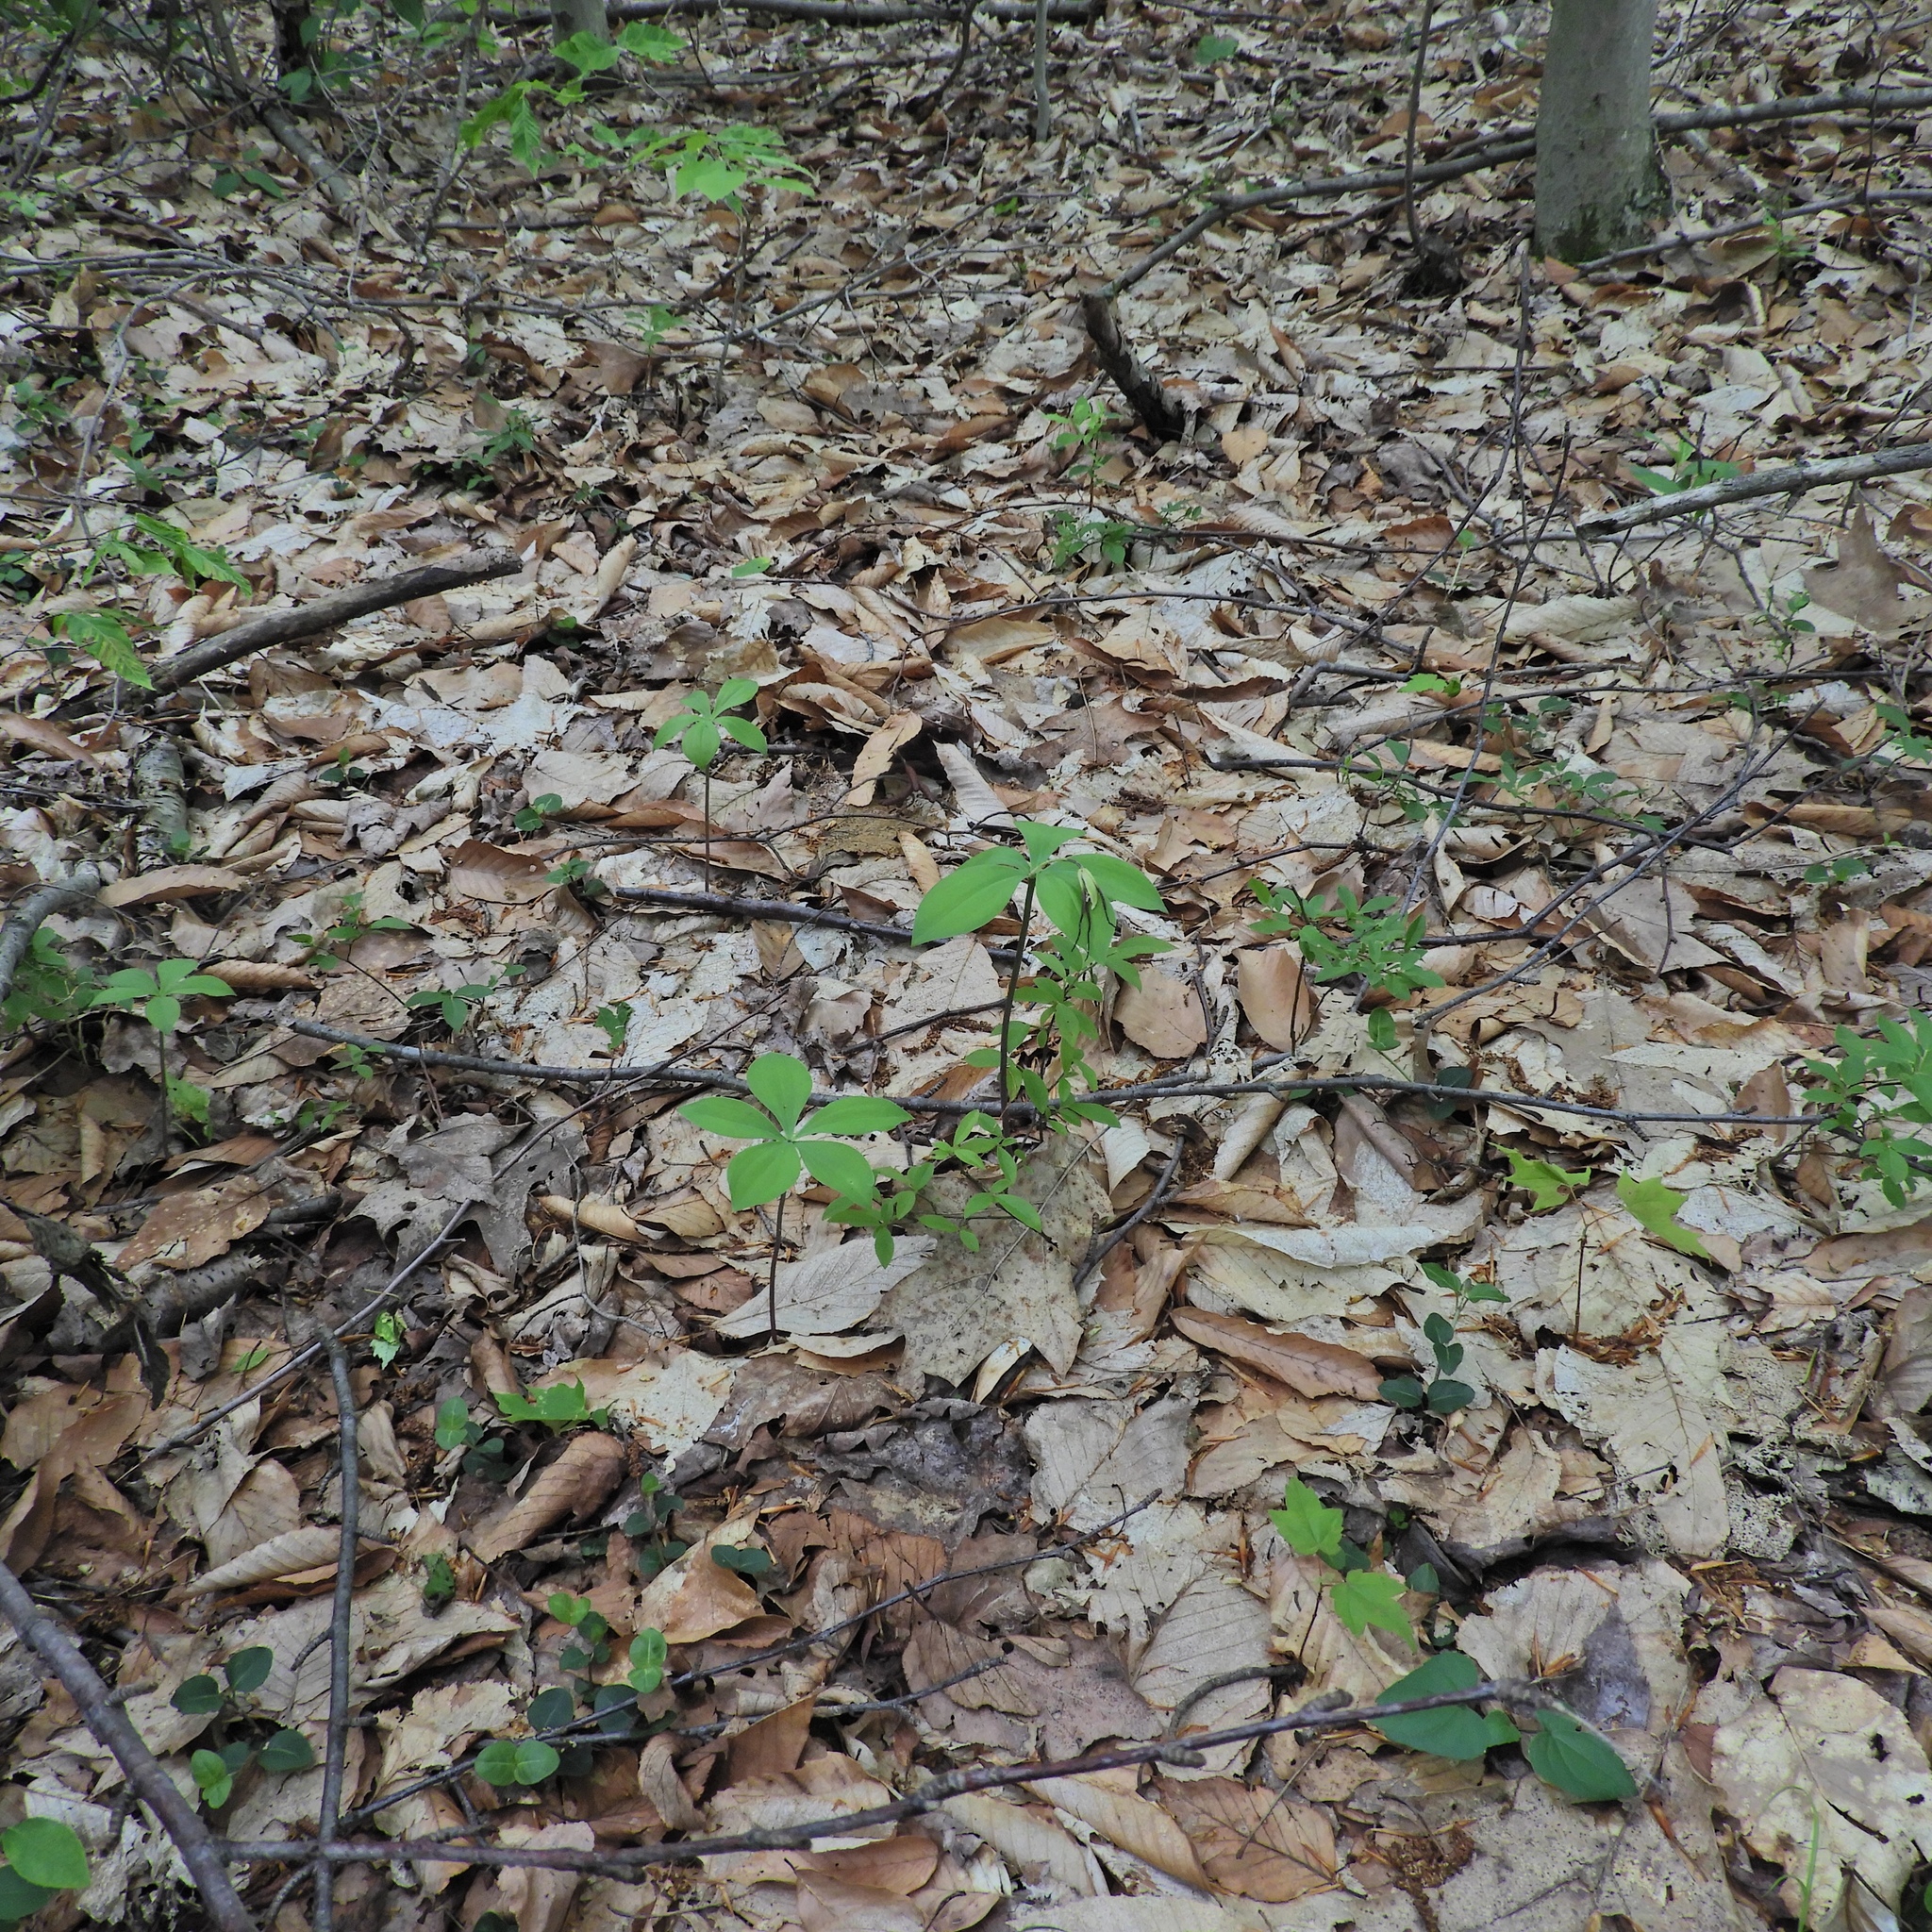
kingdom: Plantae
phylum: Tracheophyta
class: Liliopsida
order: Asparagales
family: Orchidaceae
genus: Isotria
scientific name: Isotria verticillata
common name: Large whorled pogonia
